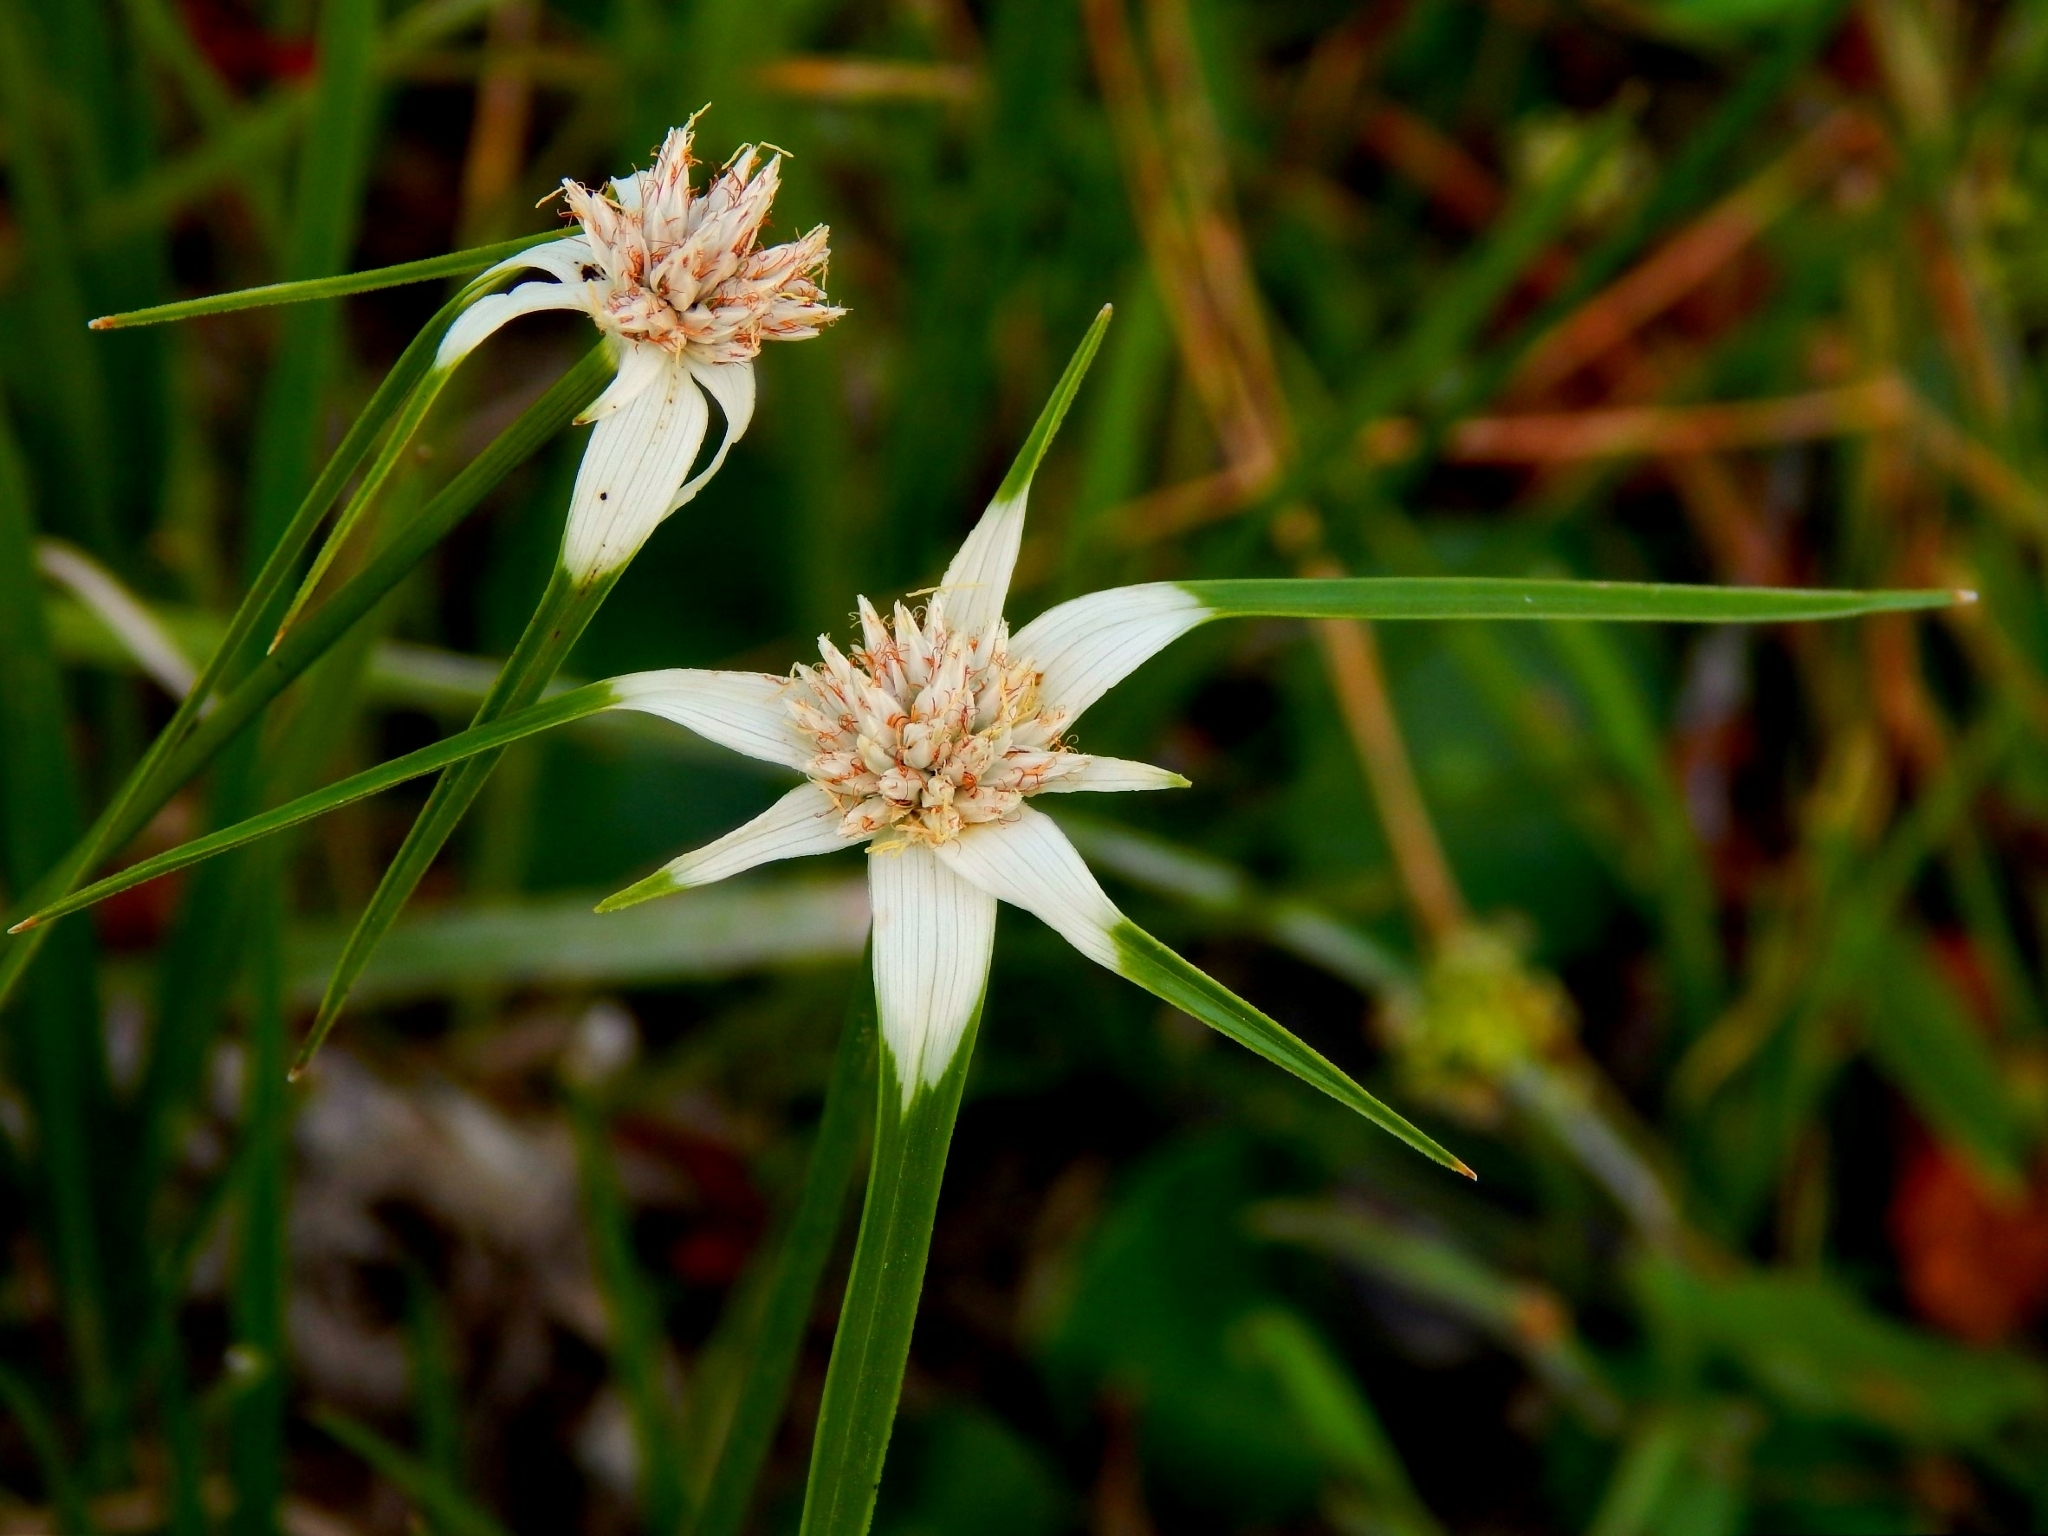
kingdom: Plantae
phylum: Tracheophyta
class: Liliopsida
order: Poales
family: Cyperaceae
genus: Rhynchospora
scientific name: Rhynchospora colorata
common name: Star sedge
